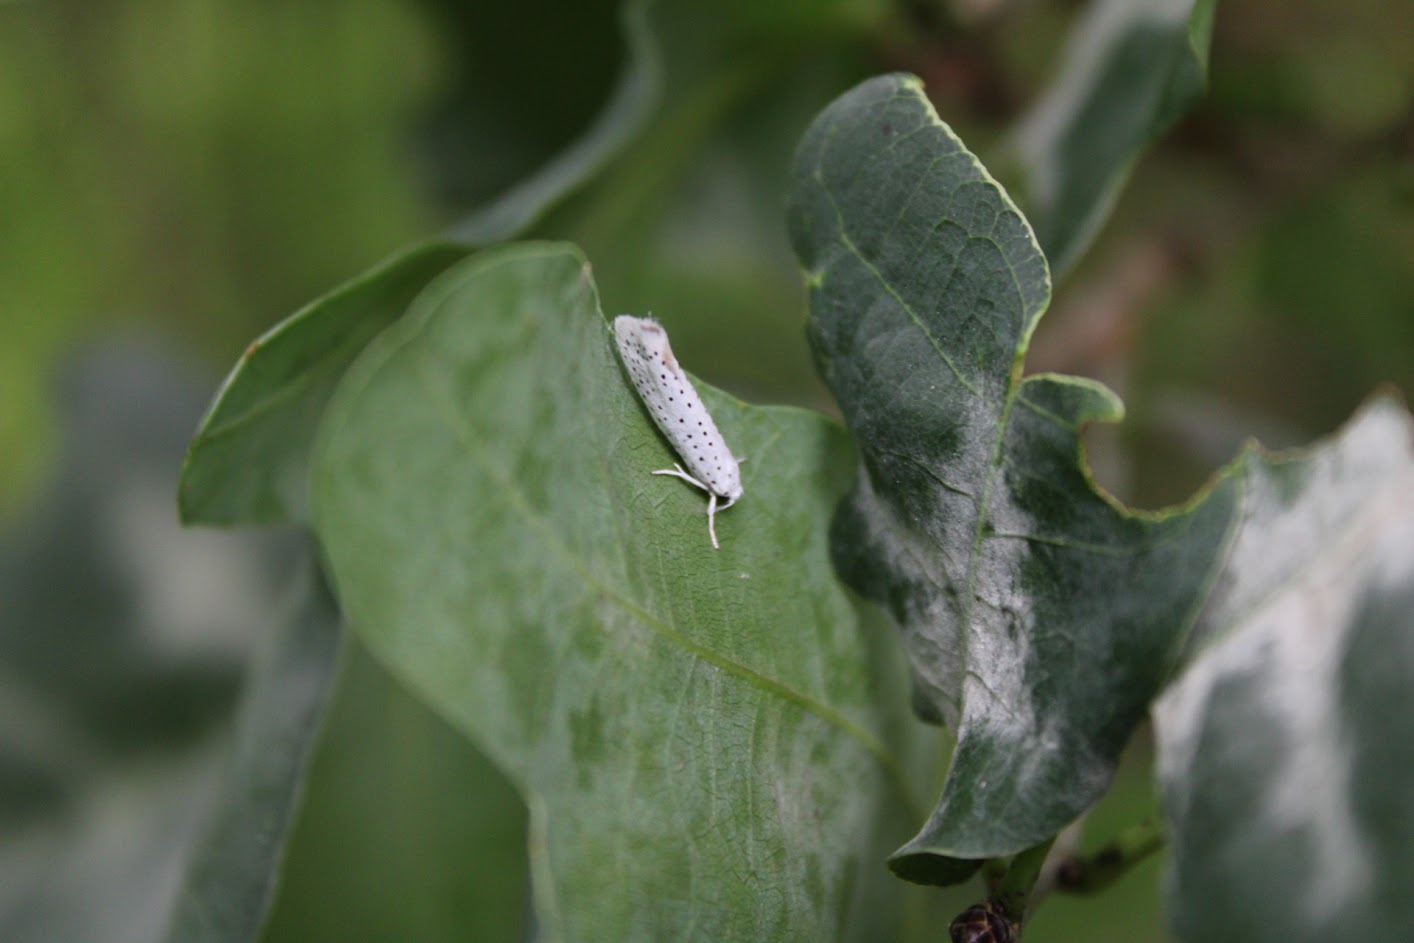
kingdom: Animalia
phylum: Arthropoda
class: Insecta
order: Lepidoptera
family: Yponomeutidae
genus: Yponomeuta
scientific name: Yponomeuta evonymella
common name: Bird-cherry ermine
